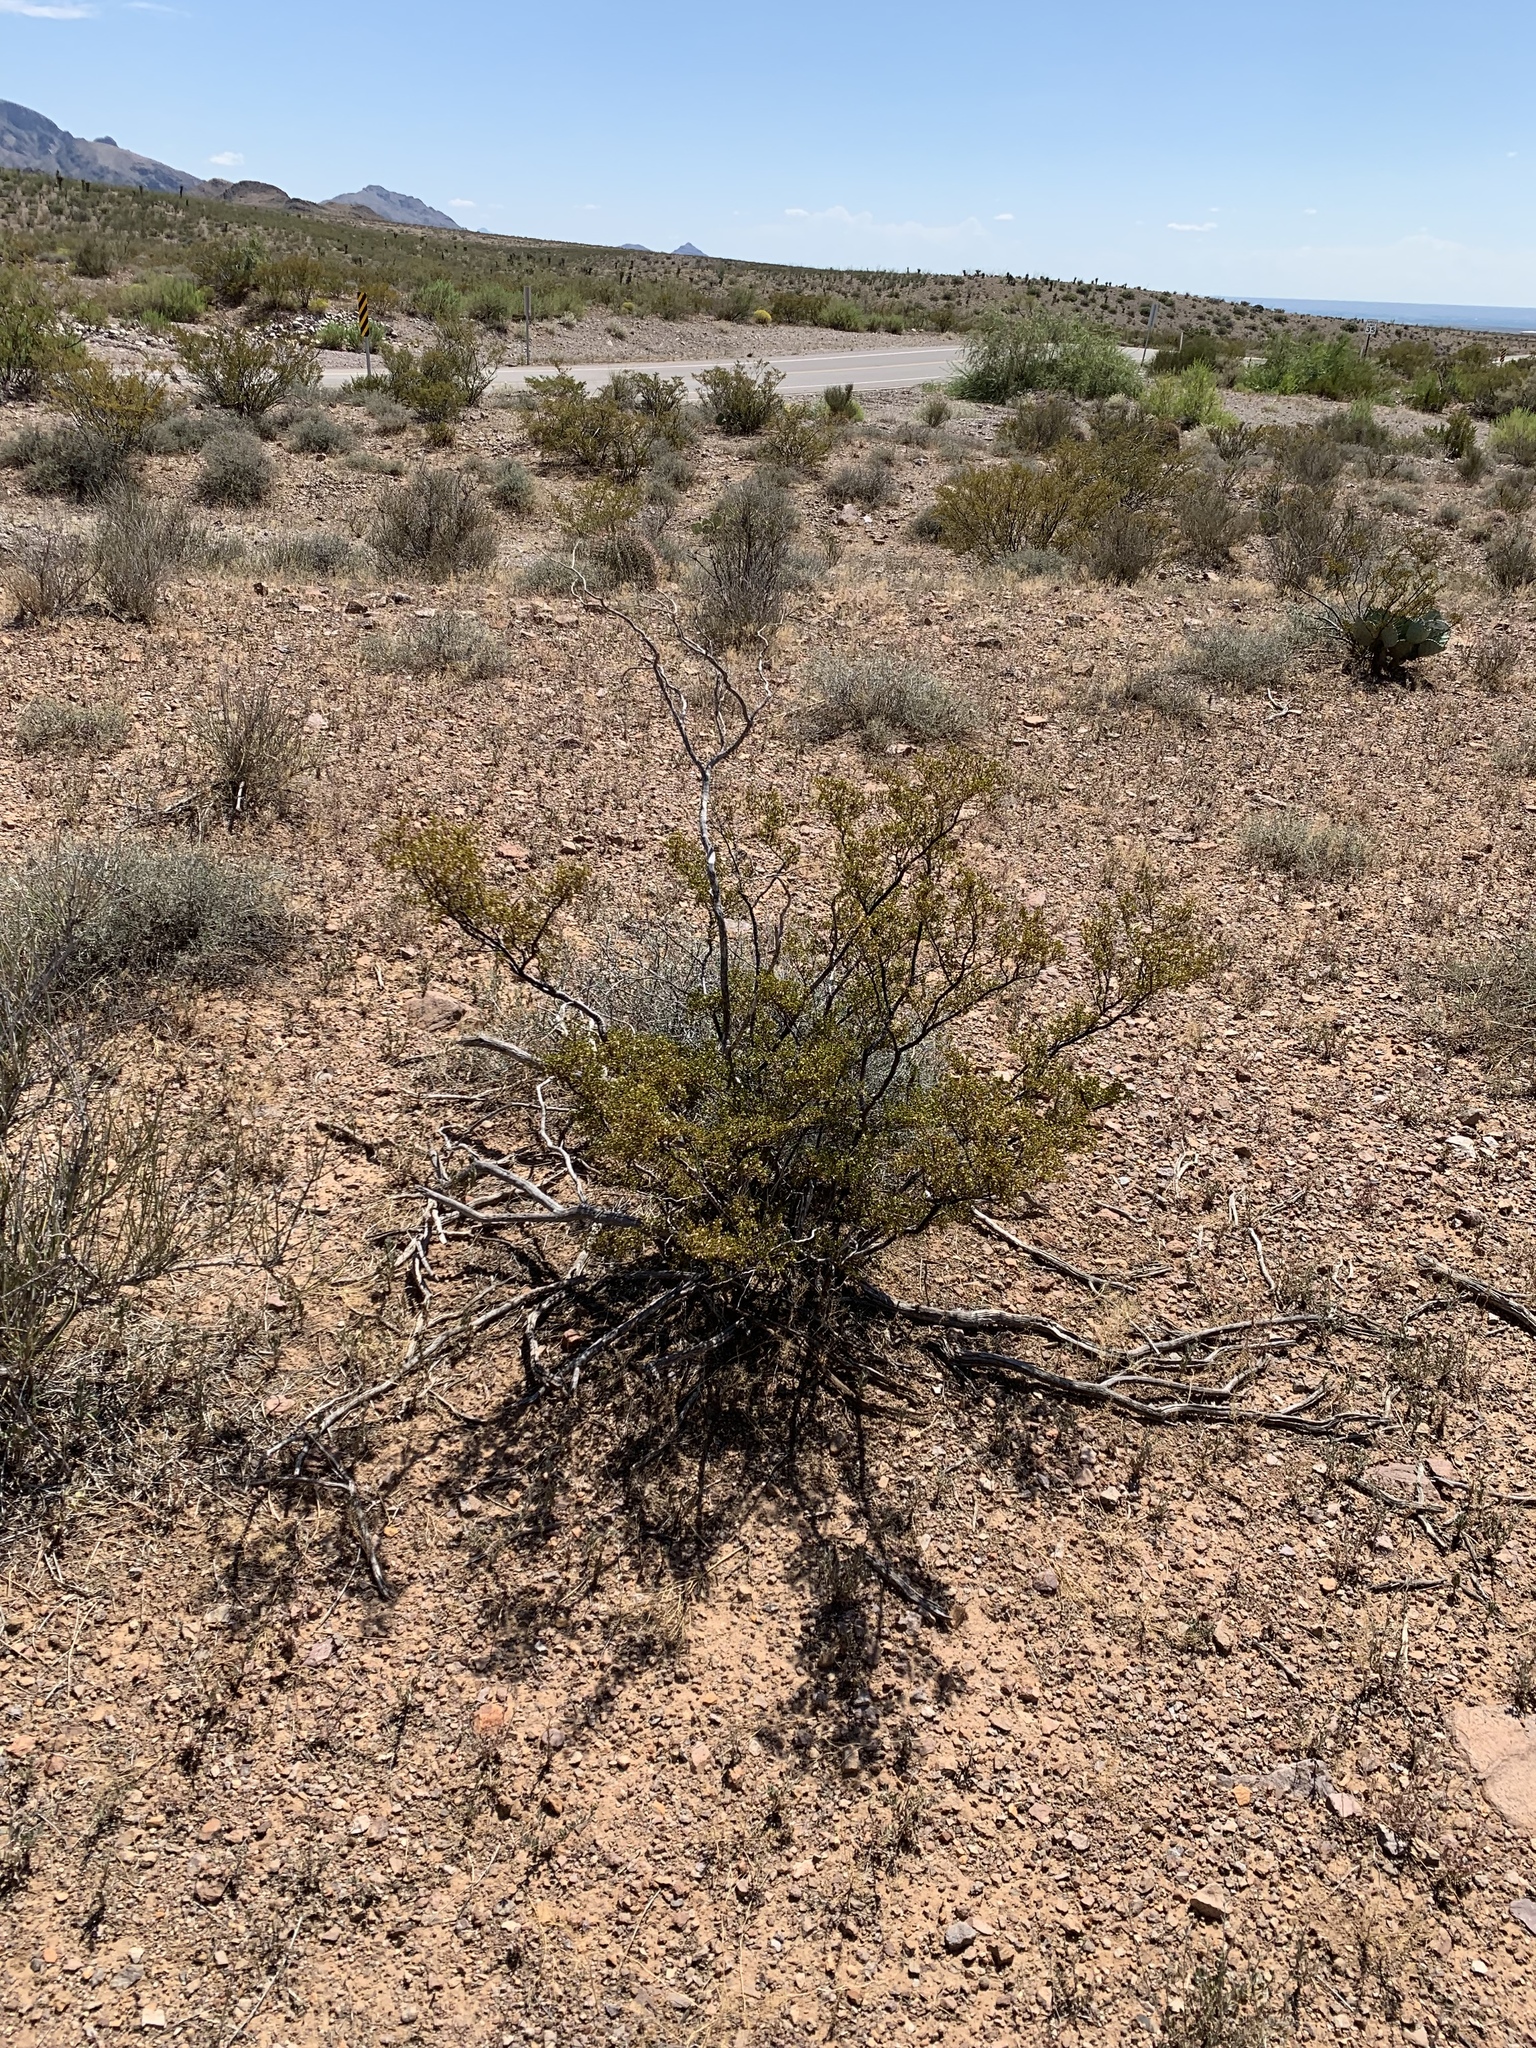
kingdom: Plantae
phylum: Tracheophyta
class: Magnoliopsida
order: Zygophyllales
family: Zygophyllaceae
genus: Larrea
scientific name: Larrea tridentata
